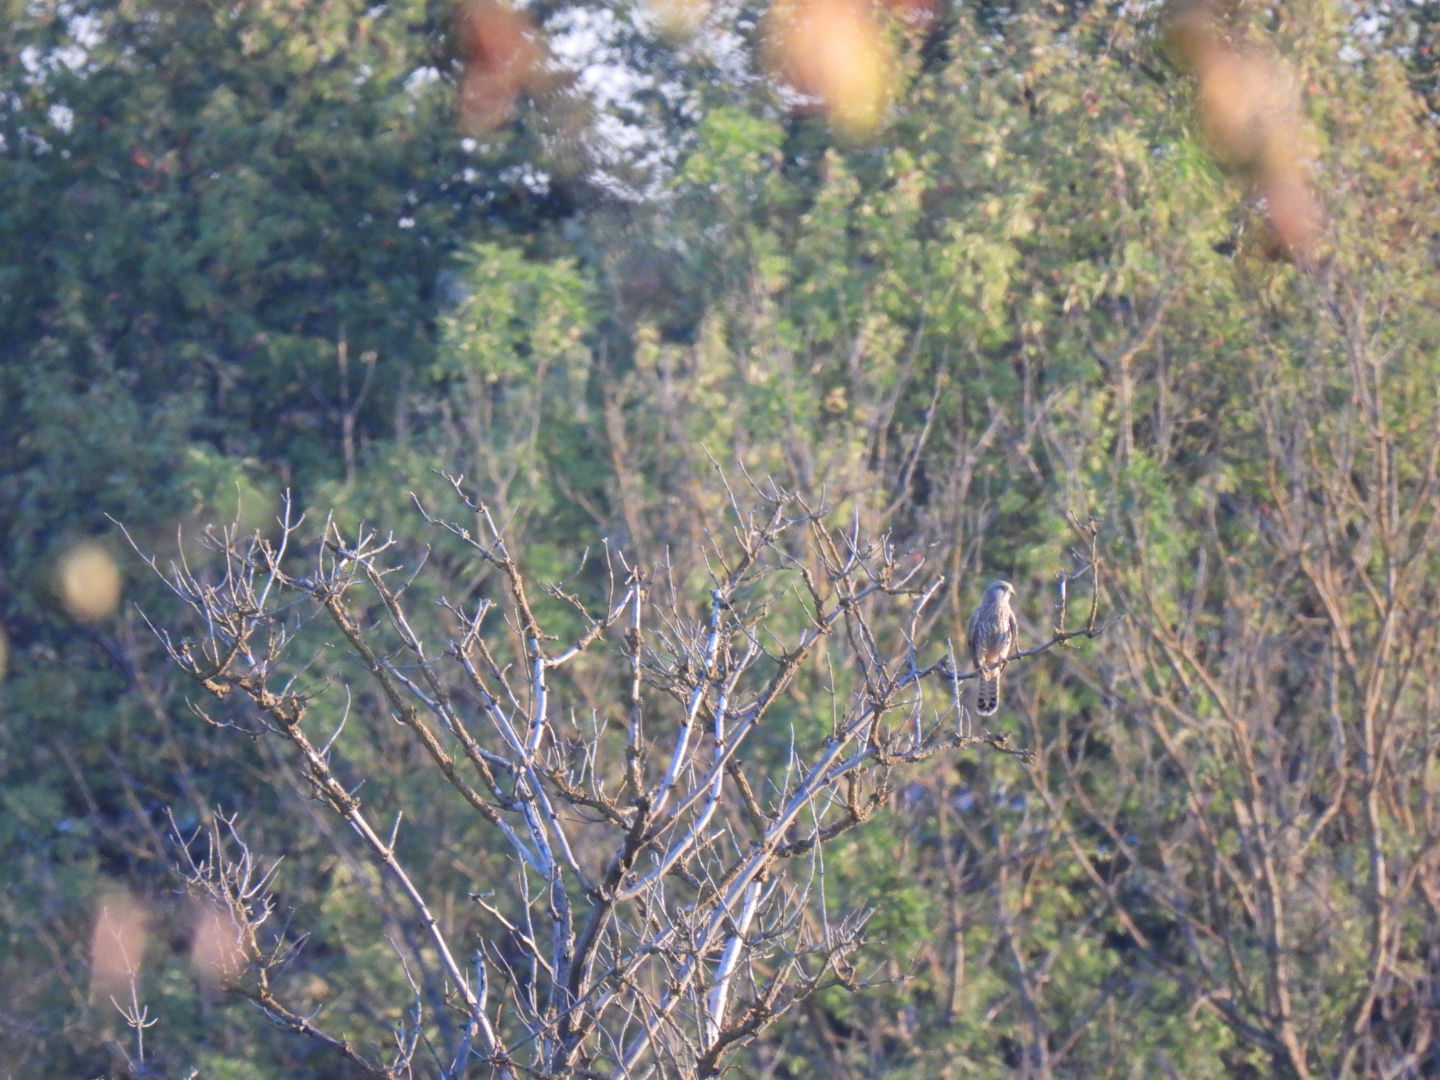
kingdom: Animalia
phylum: Chordata
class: Aves
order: Falconiformes
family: Falconidae
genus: Falco
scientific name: Falco tinnunculus
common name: Common kestrel
